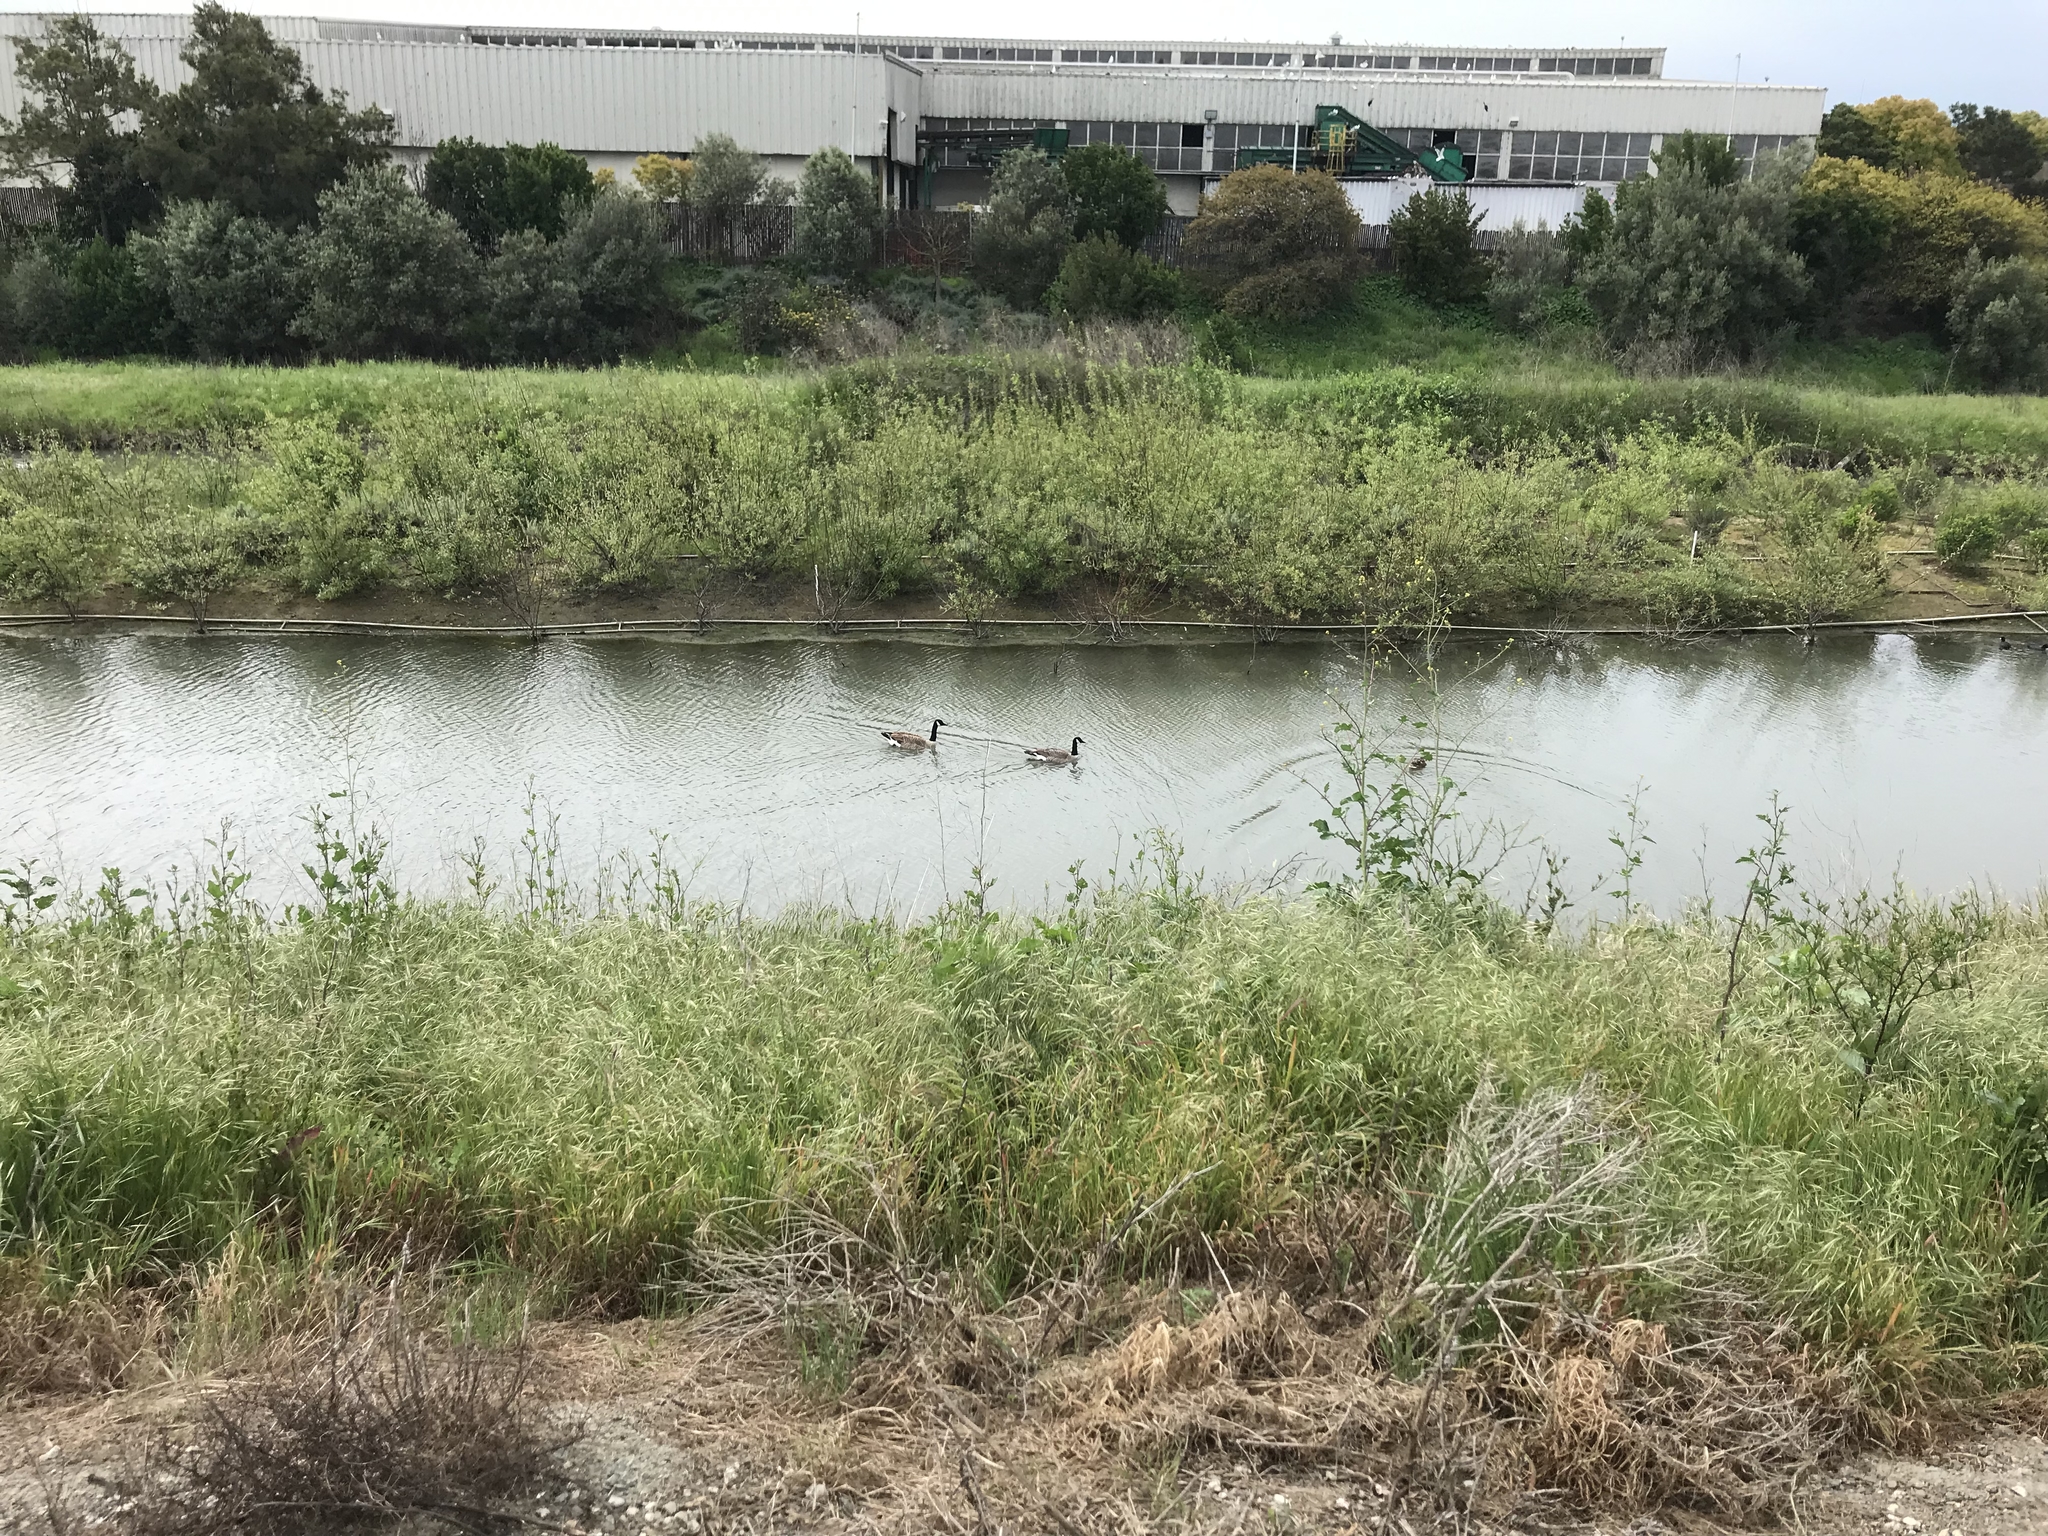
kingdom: Animalia
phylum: Chordata
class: Aves
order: Anseriformes
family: Anatidae
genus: Branta
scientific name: Branta canadensis
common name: Canada goose
